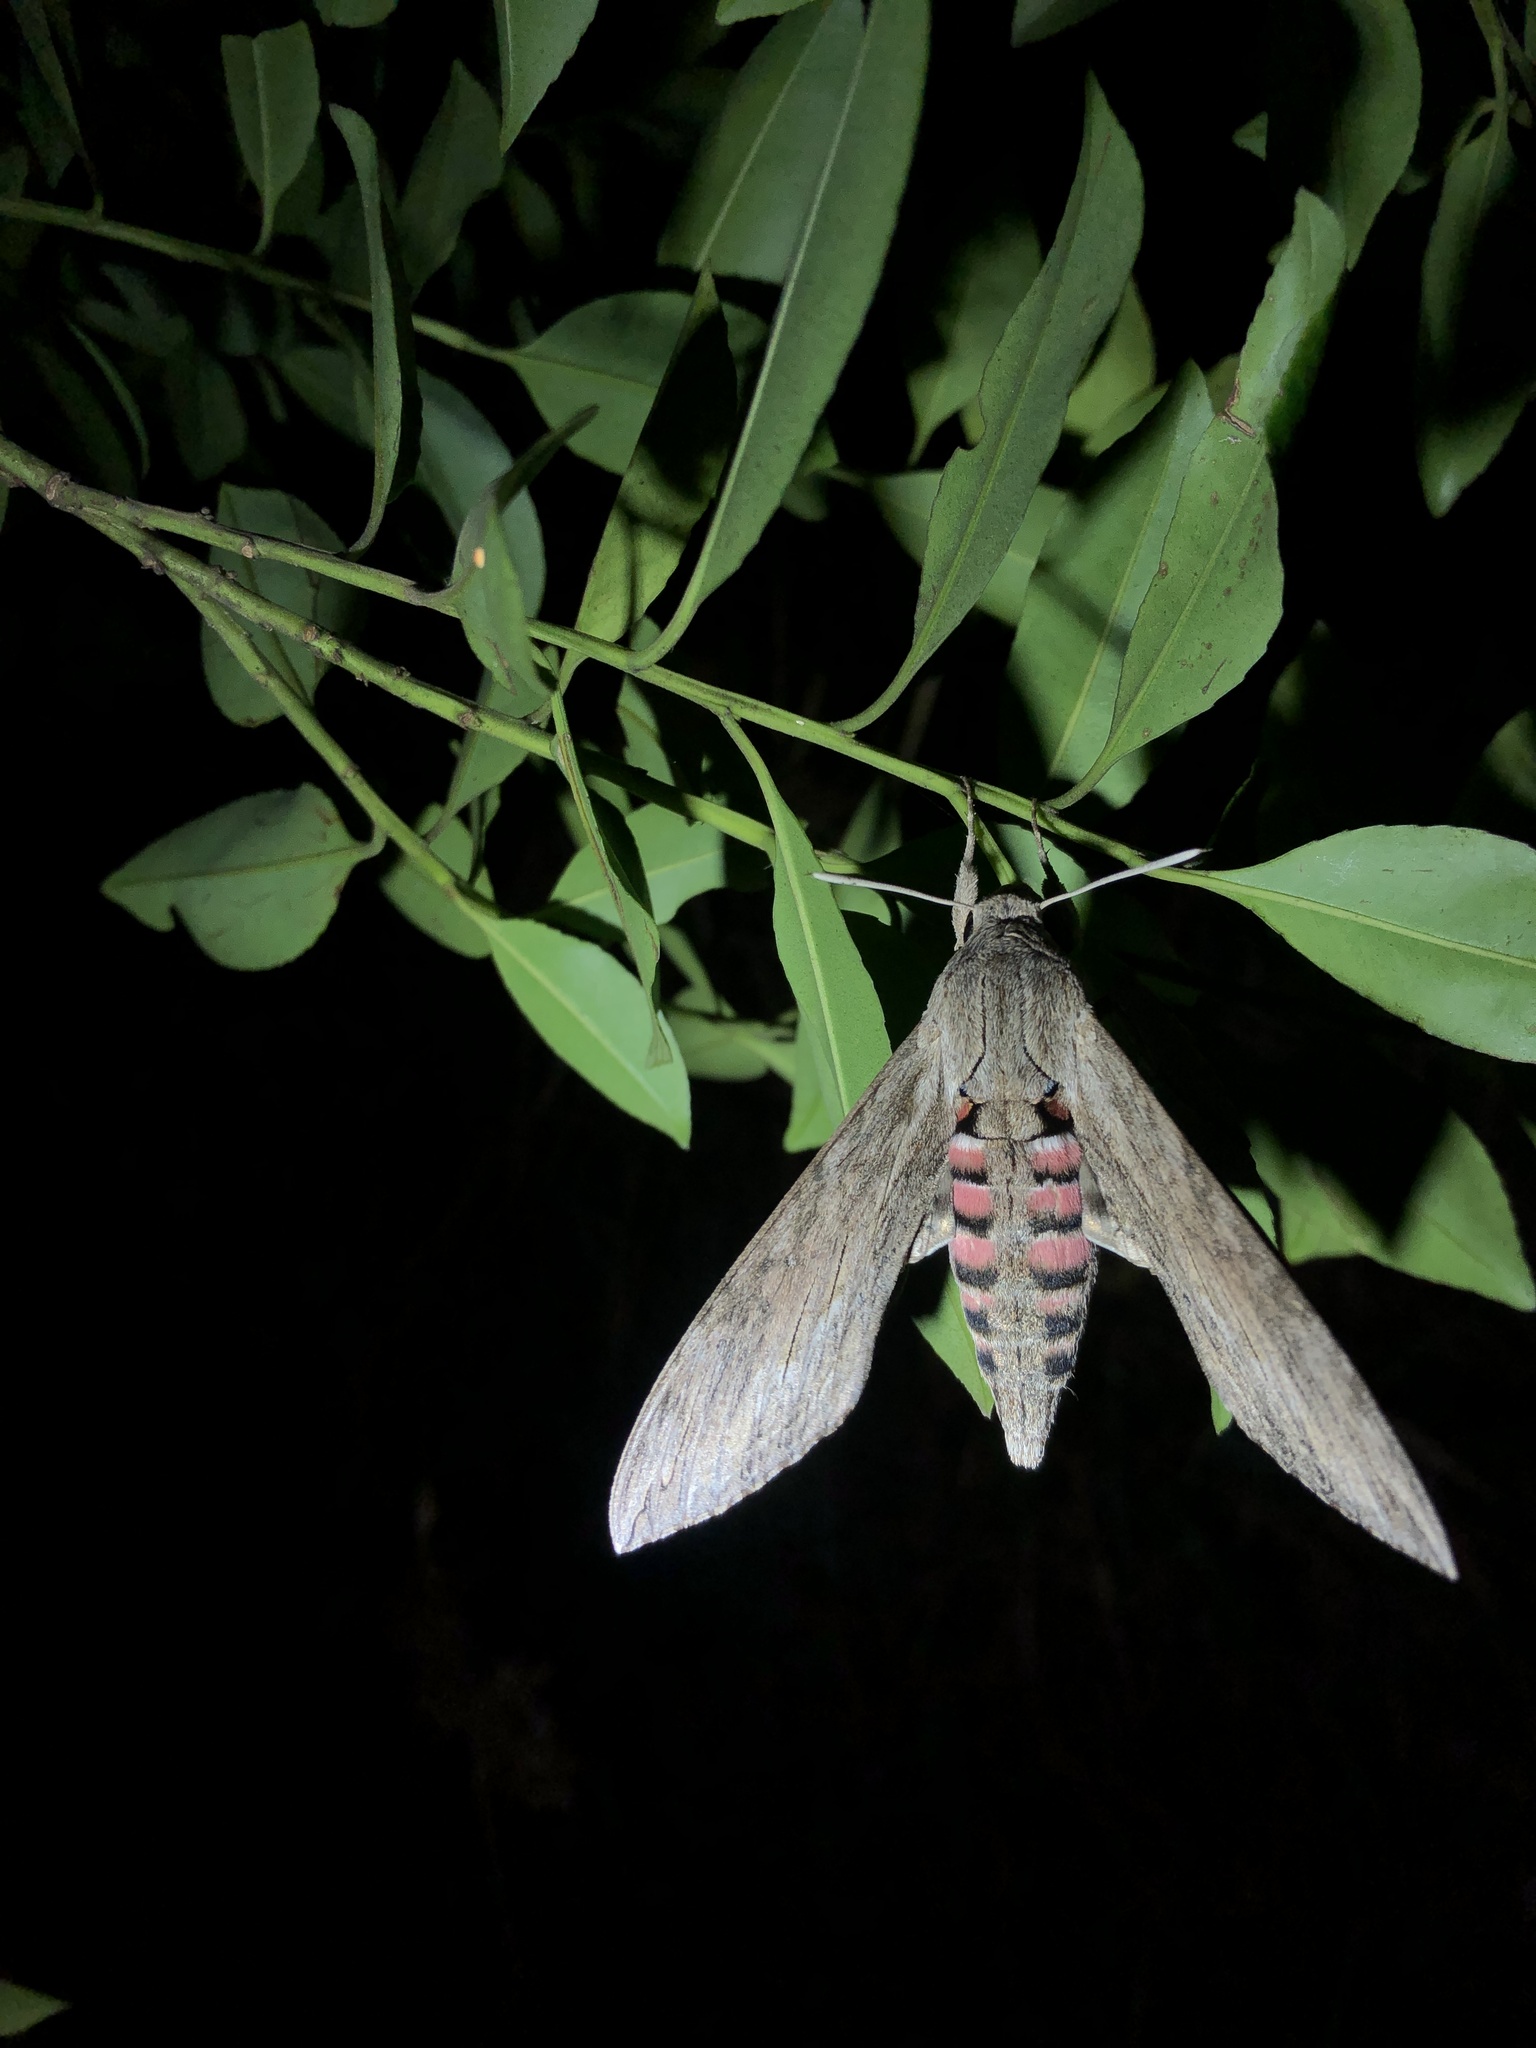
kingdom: Animalia
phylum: Arthropoda
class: Insecta
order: Lepidoptera
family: Sphingidae
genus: Agrius
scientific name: Agrius convolvuli
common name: Convolvulus hawkmoth
